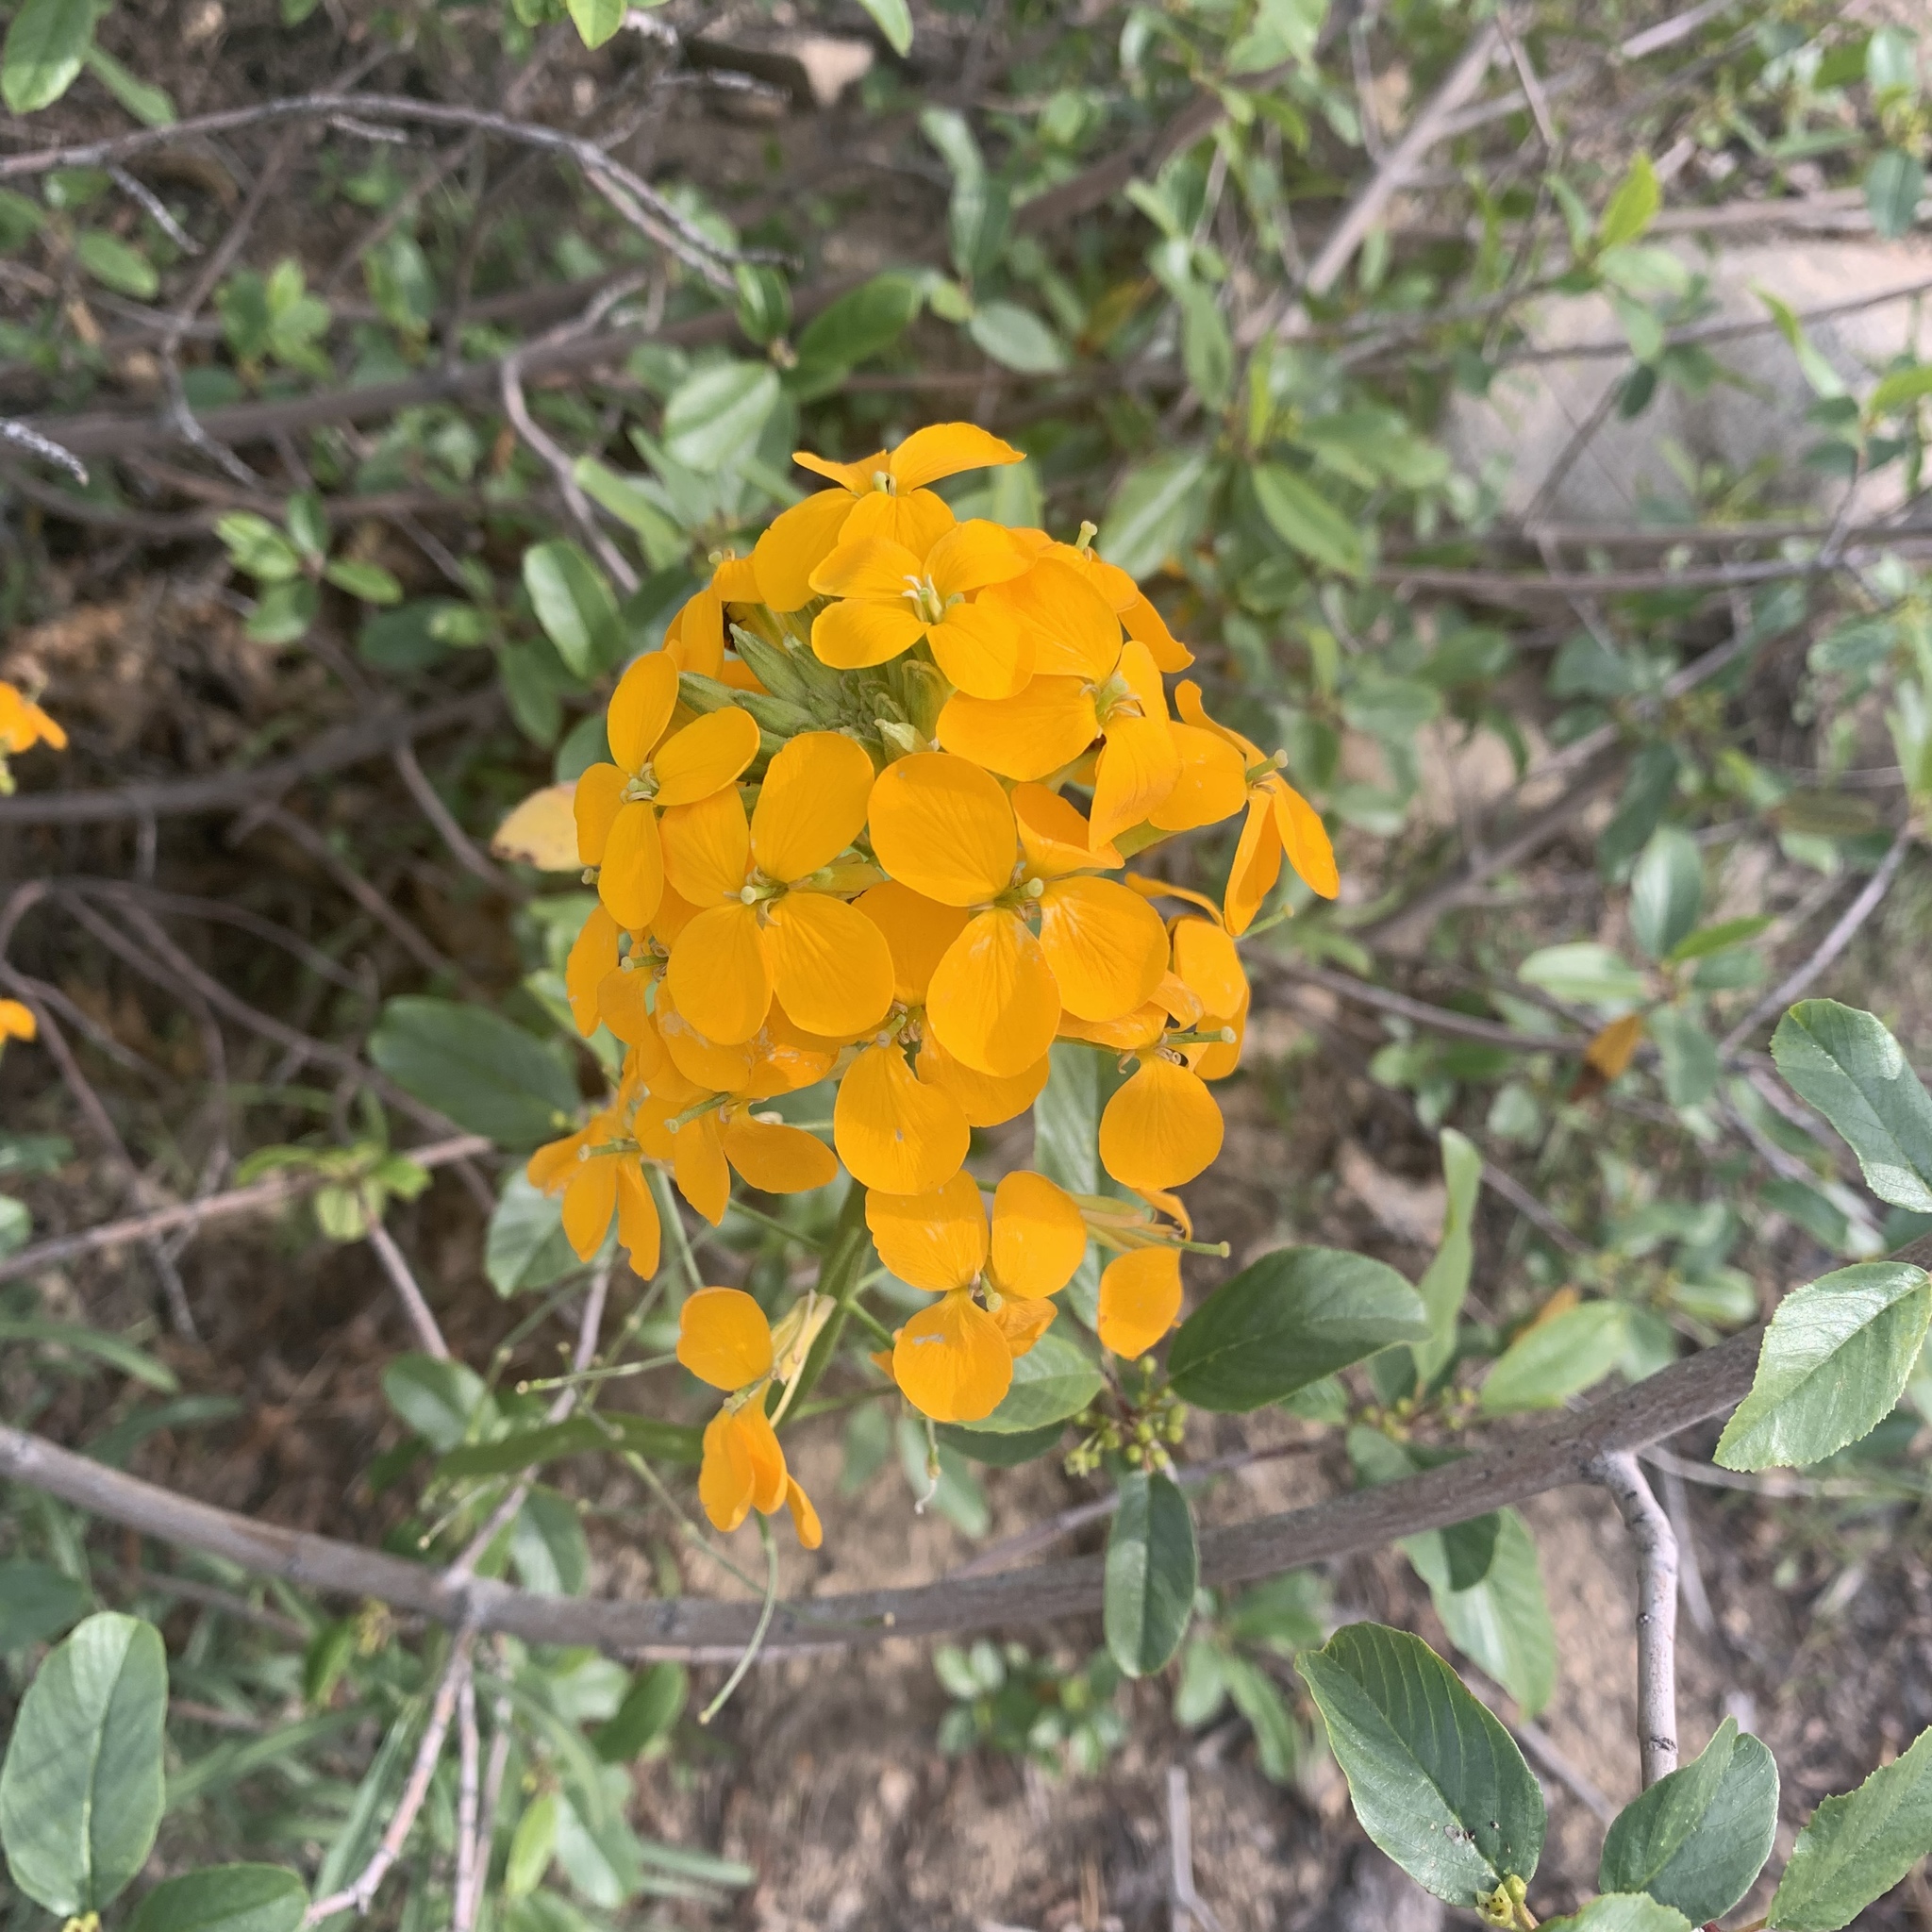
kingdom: Plantae
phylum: Tracheophyta
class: Magnoliopsida
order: Brassicales
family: Brassicaceae
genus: Erysimum
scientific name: Erysimum capitatum
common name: Western wallflower
